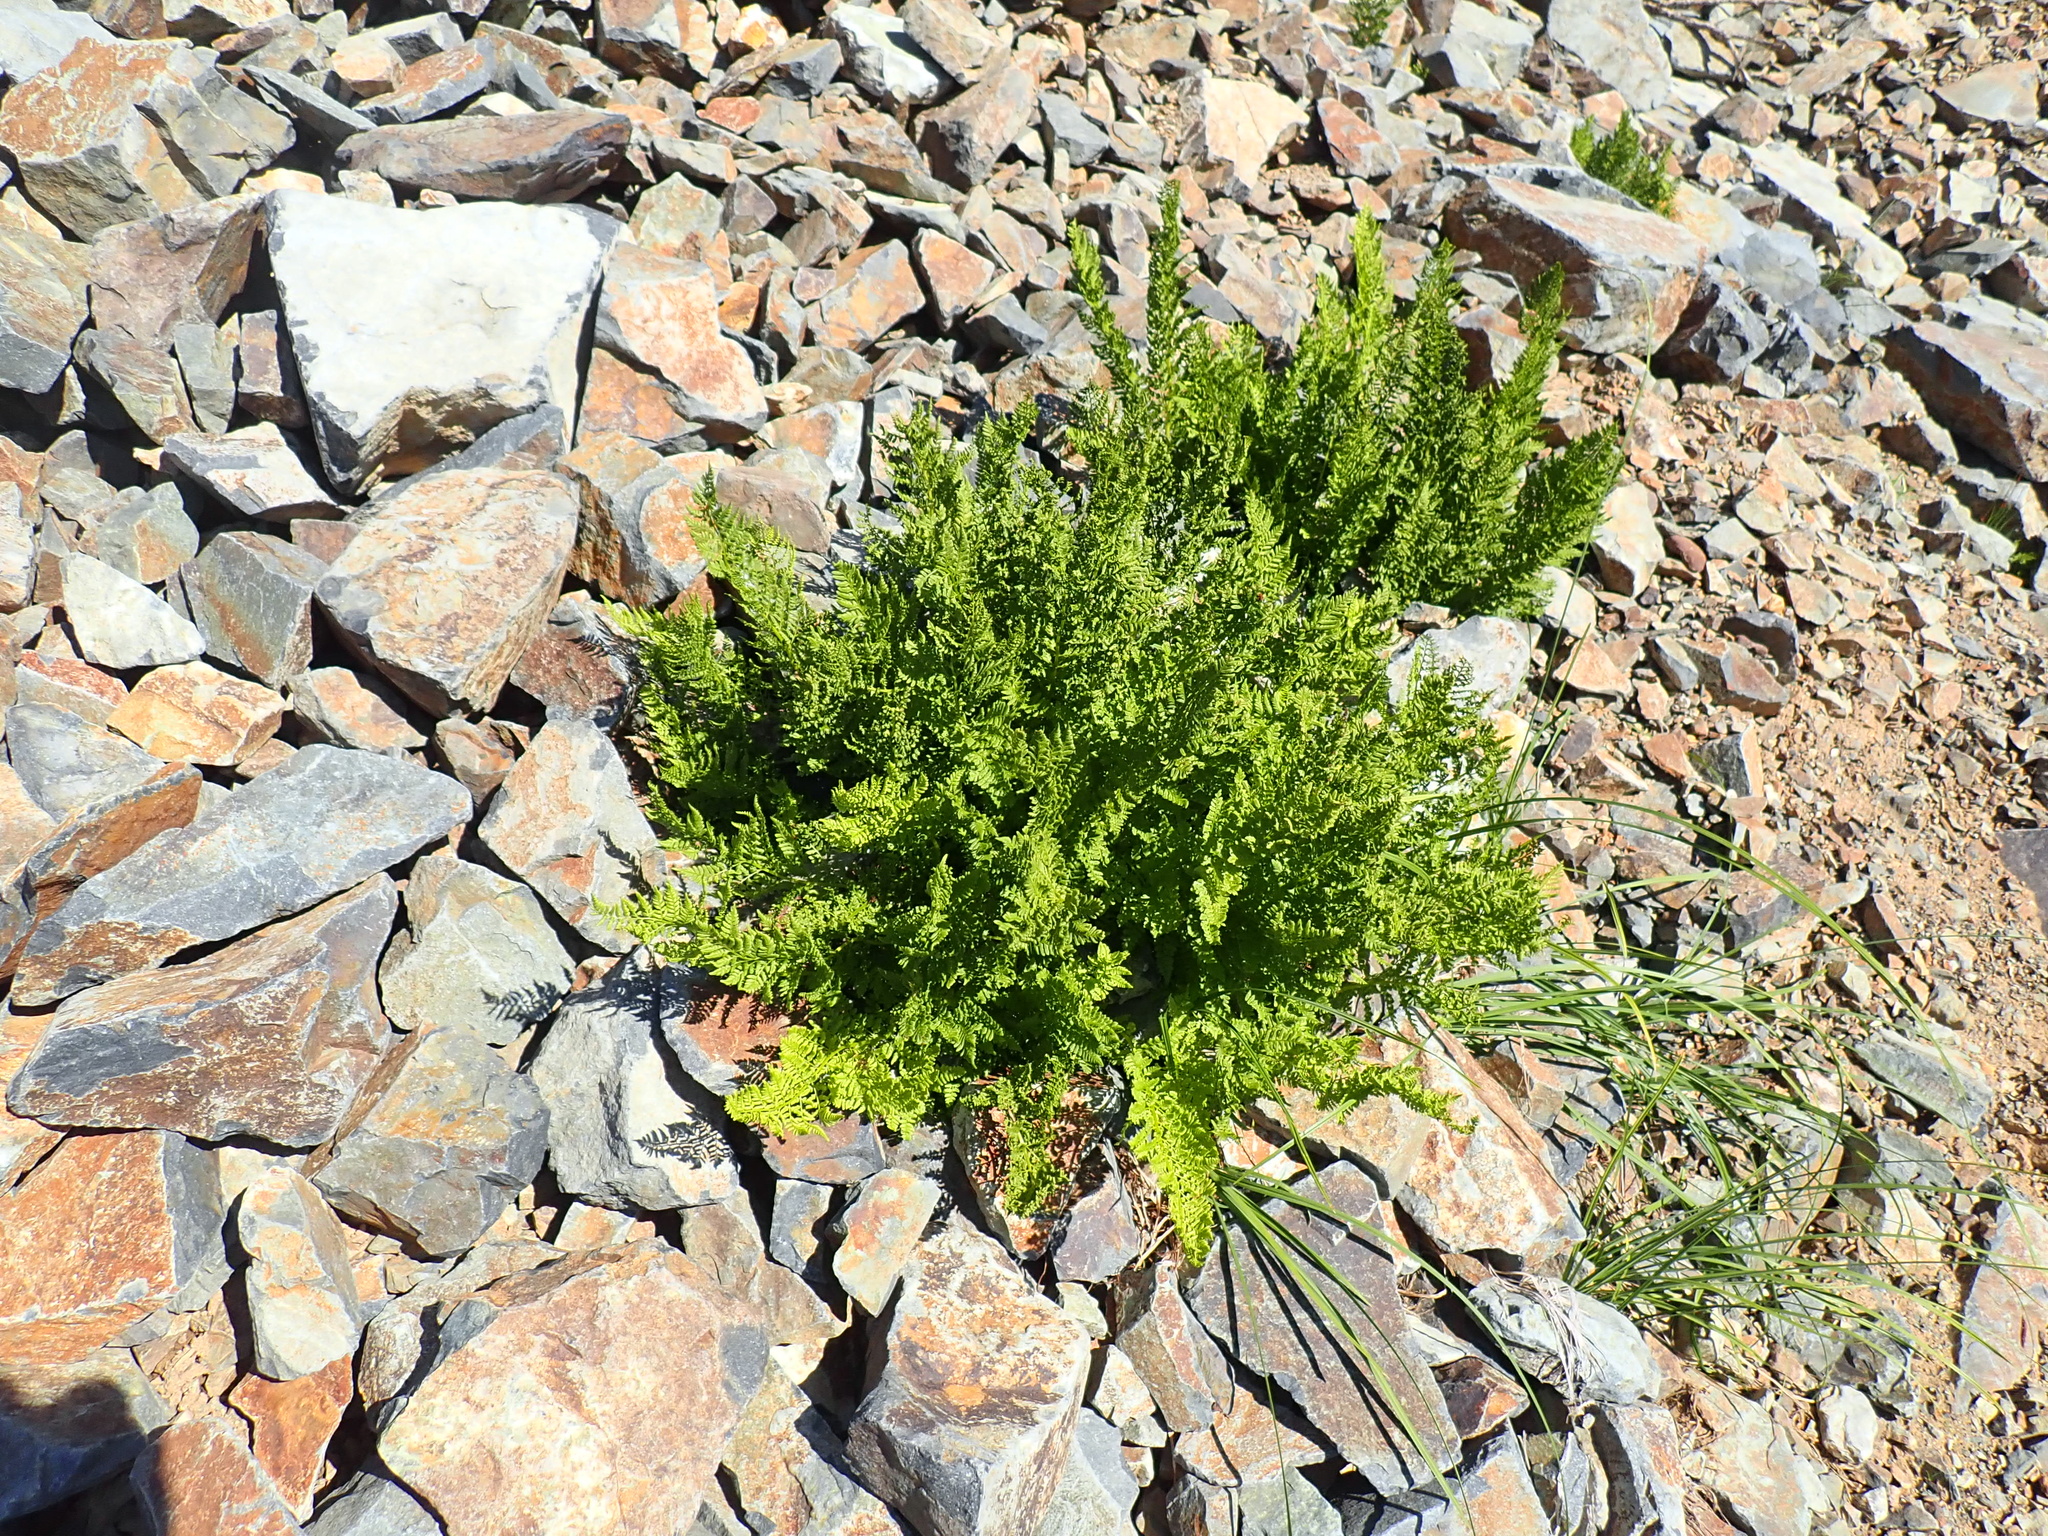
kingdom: Plantae
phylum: Tracheophyta
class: Polypodiopsida
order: Polypodiales
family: Athyriaceae
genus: Athyrium
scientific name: Athyrium americanum
